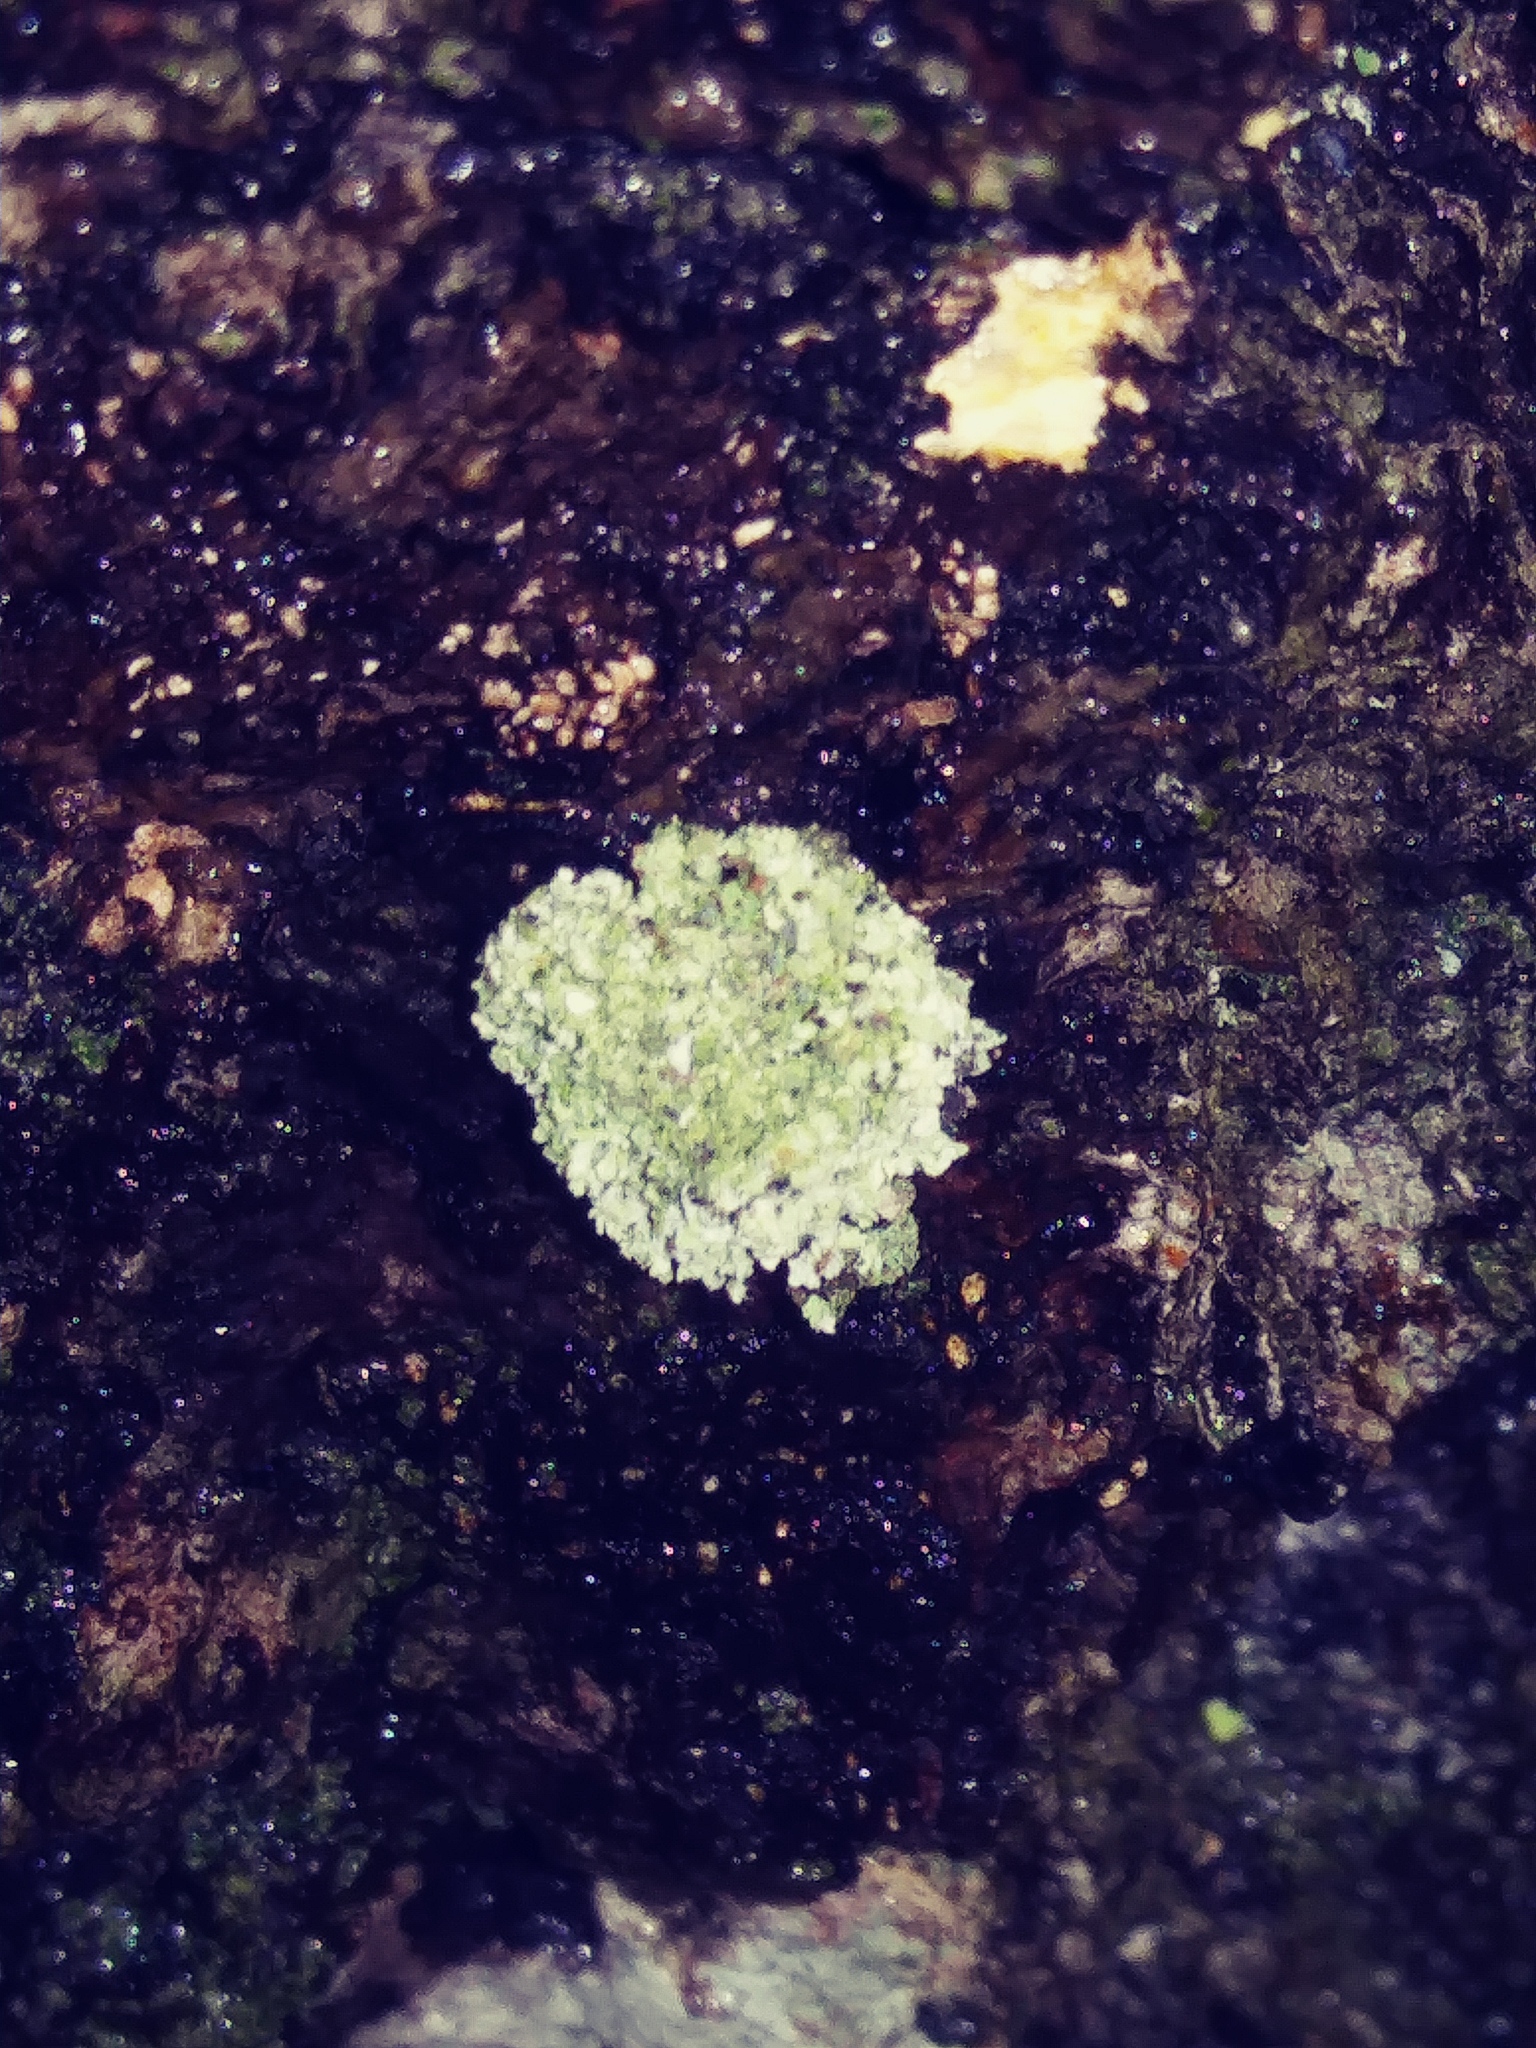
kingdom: Animalia
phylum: Arthropoda
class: Insecta
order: Neuroptera
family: Chrysopidae
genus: Leucochrysa
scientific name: Leucochrysa pavida
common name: Lichen-carrying green lacewing
